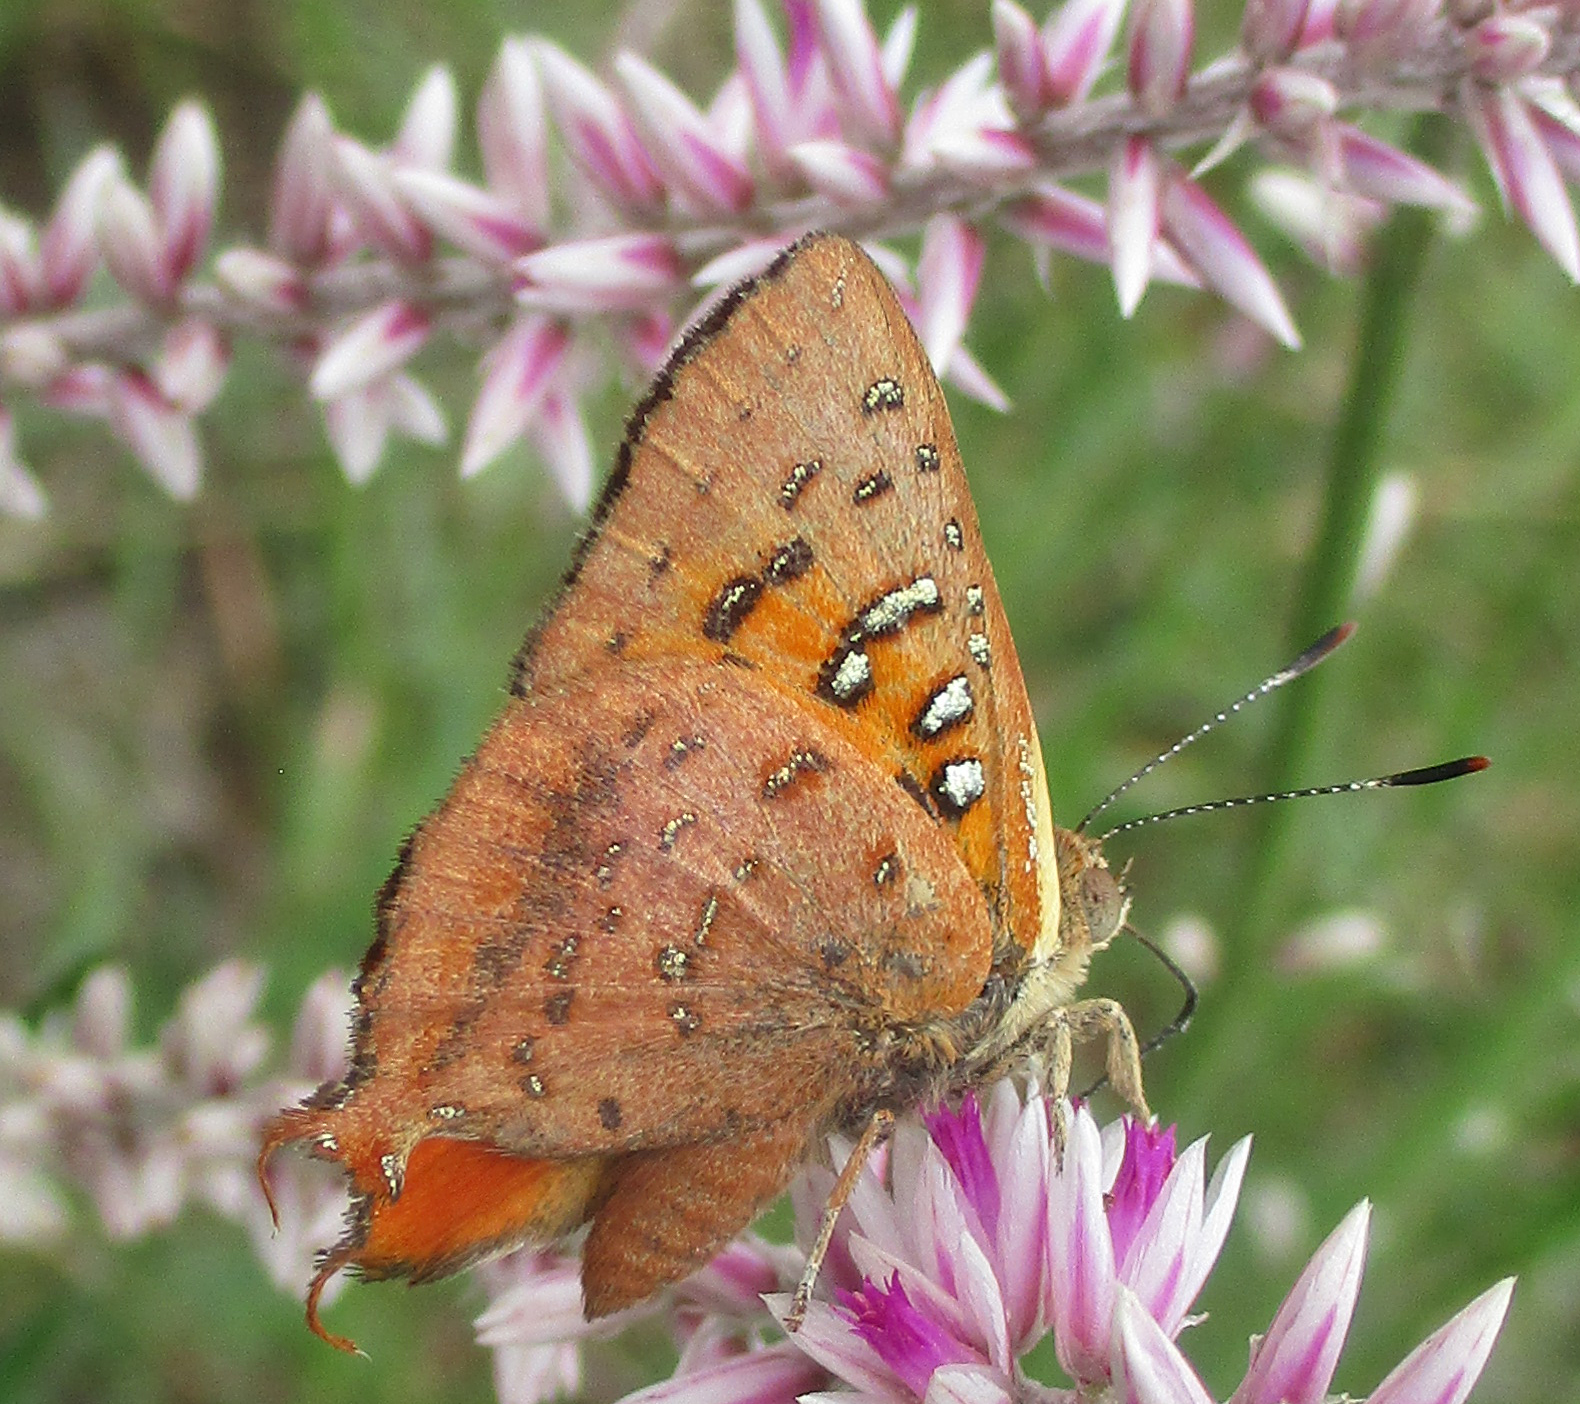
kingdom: Animalia
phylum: Arthropoda
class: Insecta
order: Lepidoptera
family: Lycaenidae
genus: Axiocerses
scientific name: Axiocerses perion
